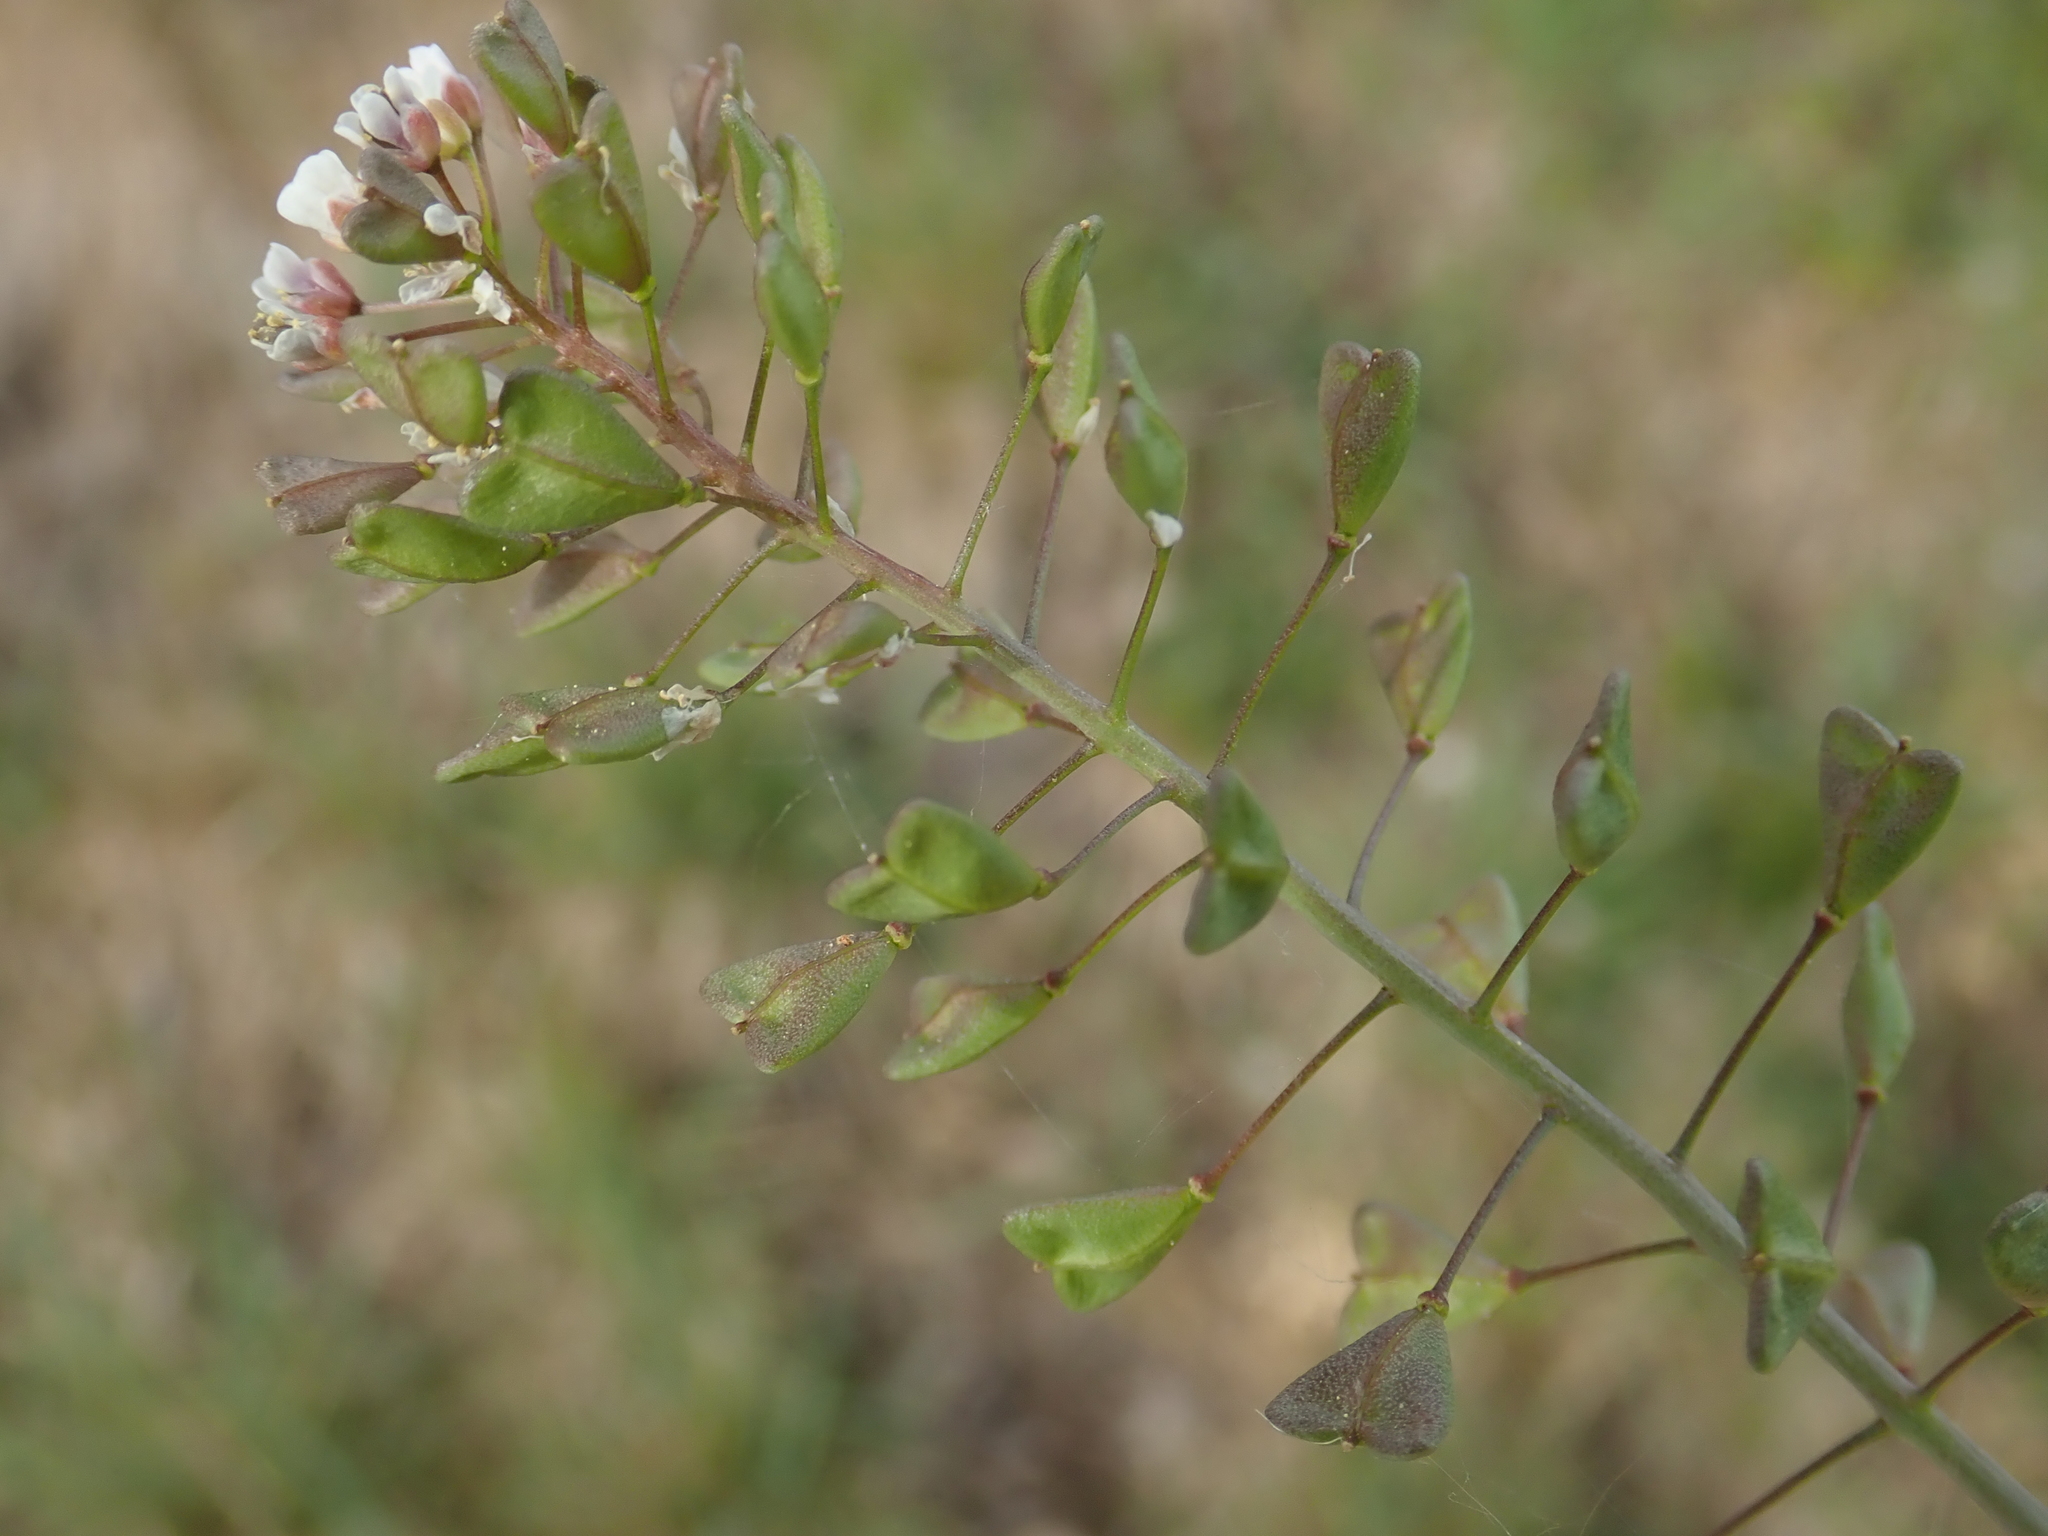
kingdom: Plantae
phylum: Tracheophyta
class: Magnoliopsida
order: Brassicales
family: Brassicaceae
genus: Capsella
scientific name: Capsella bursa-pastoris
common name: Shepherd's purse
